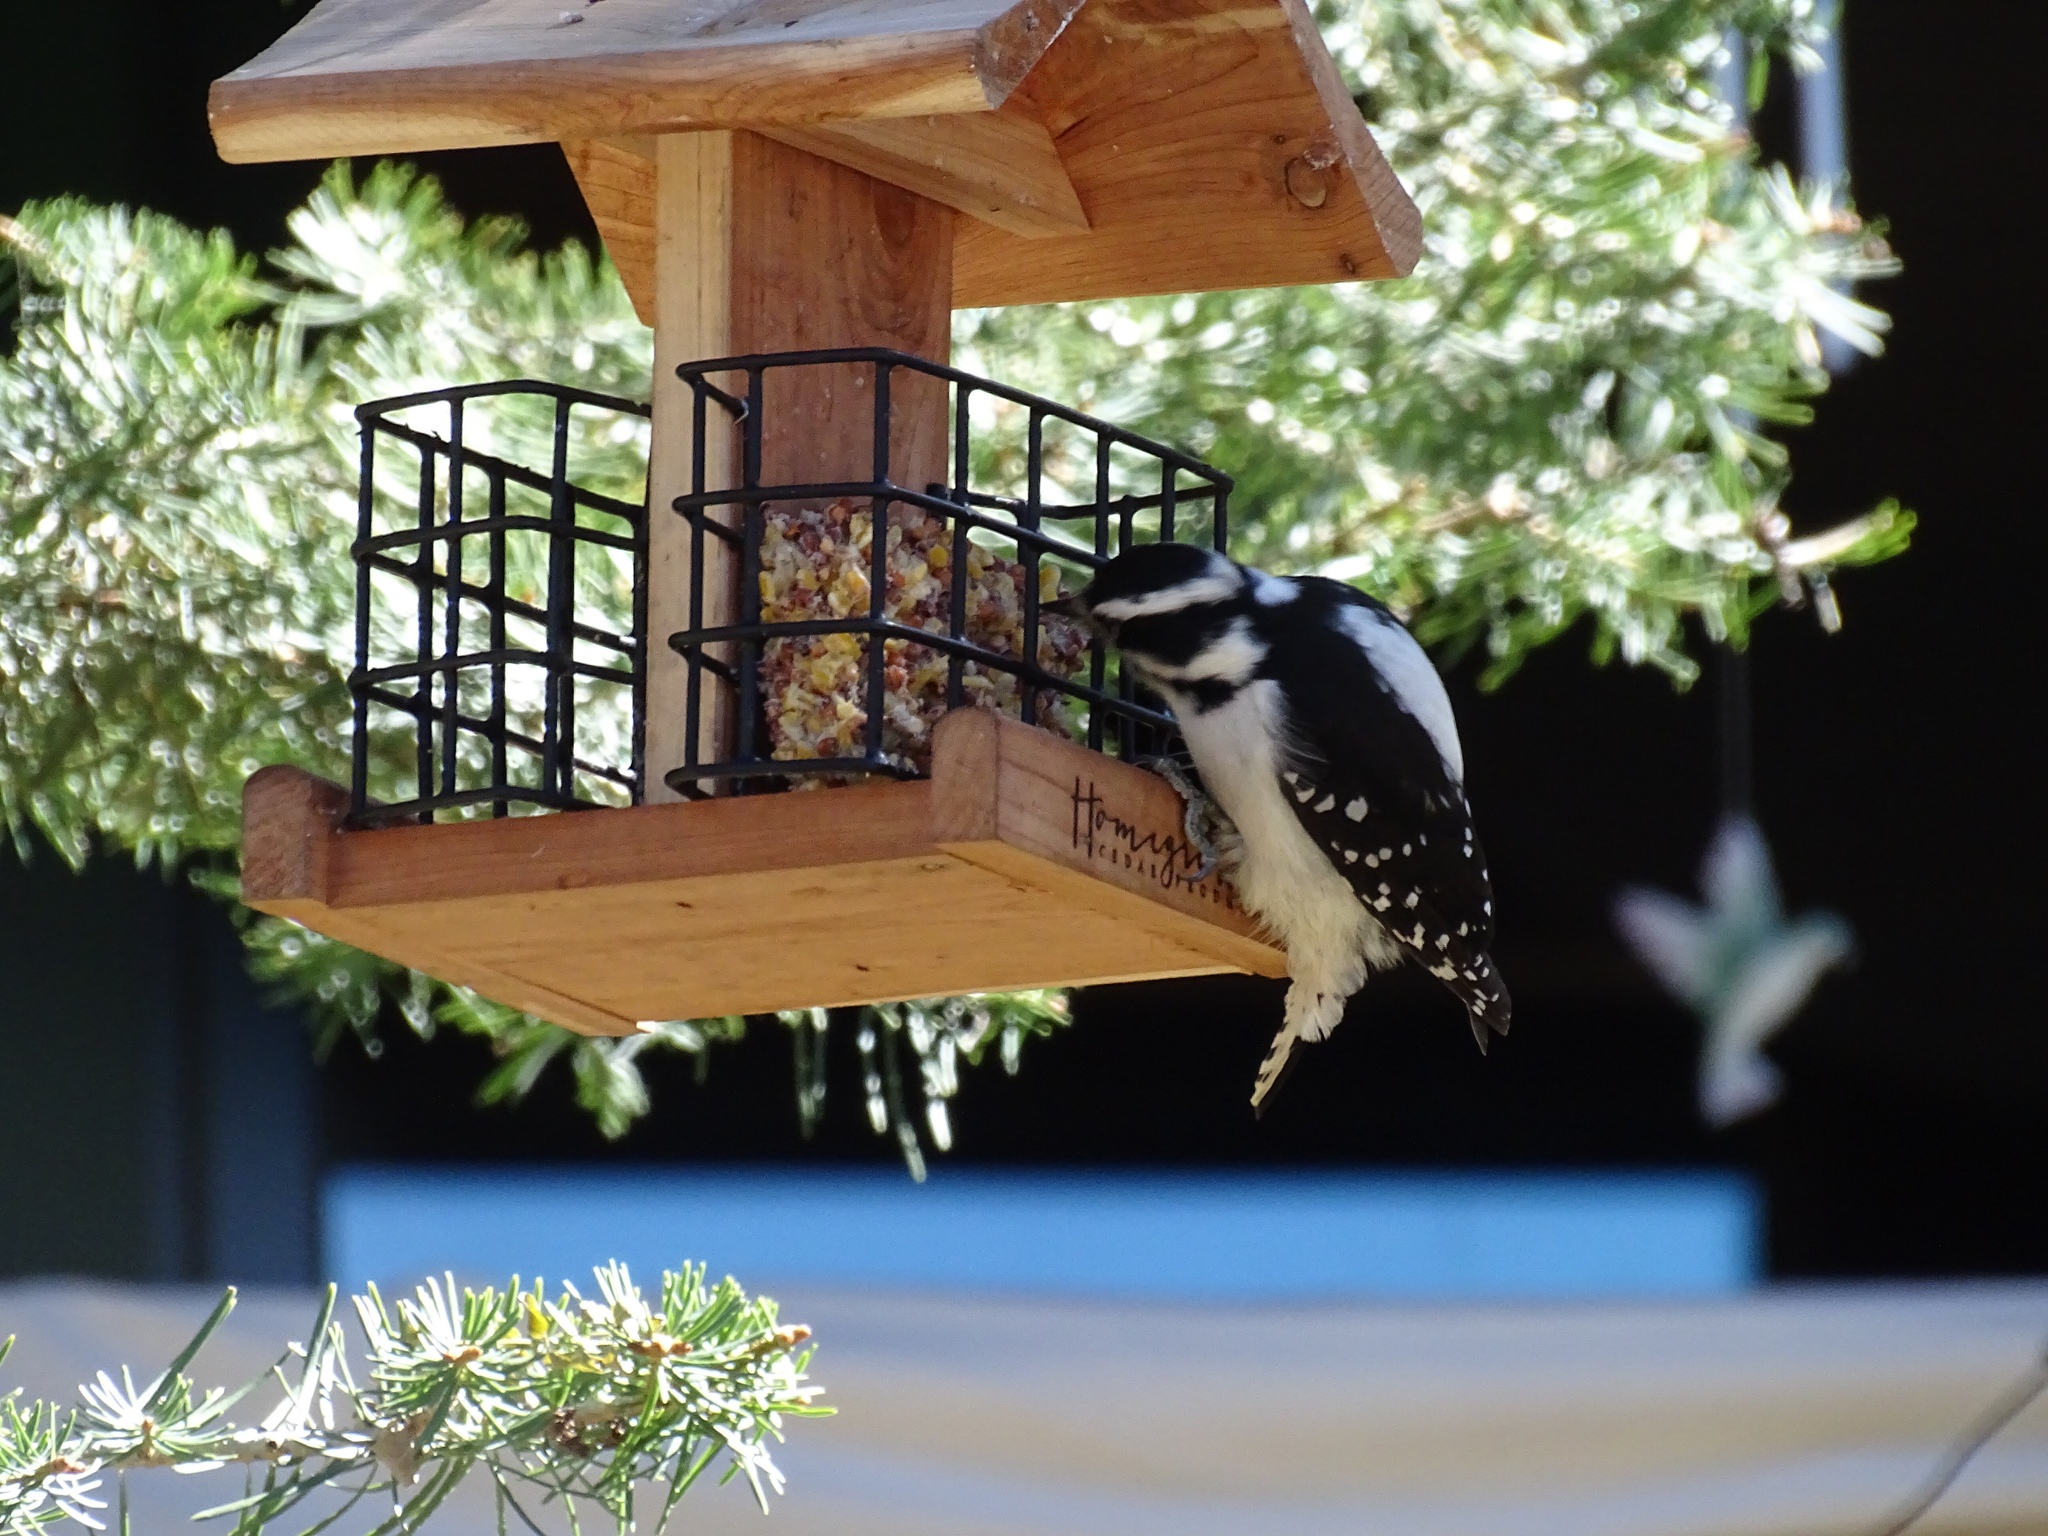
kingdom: Animalia
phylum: Chordata
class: Aves
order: Piciformes
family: Picidae
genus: Leuconotopicus
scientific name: Leuconotopicus villosus
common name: Hairy woodpecker
